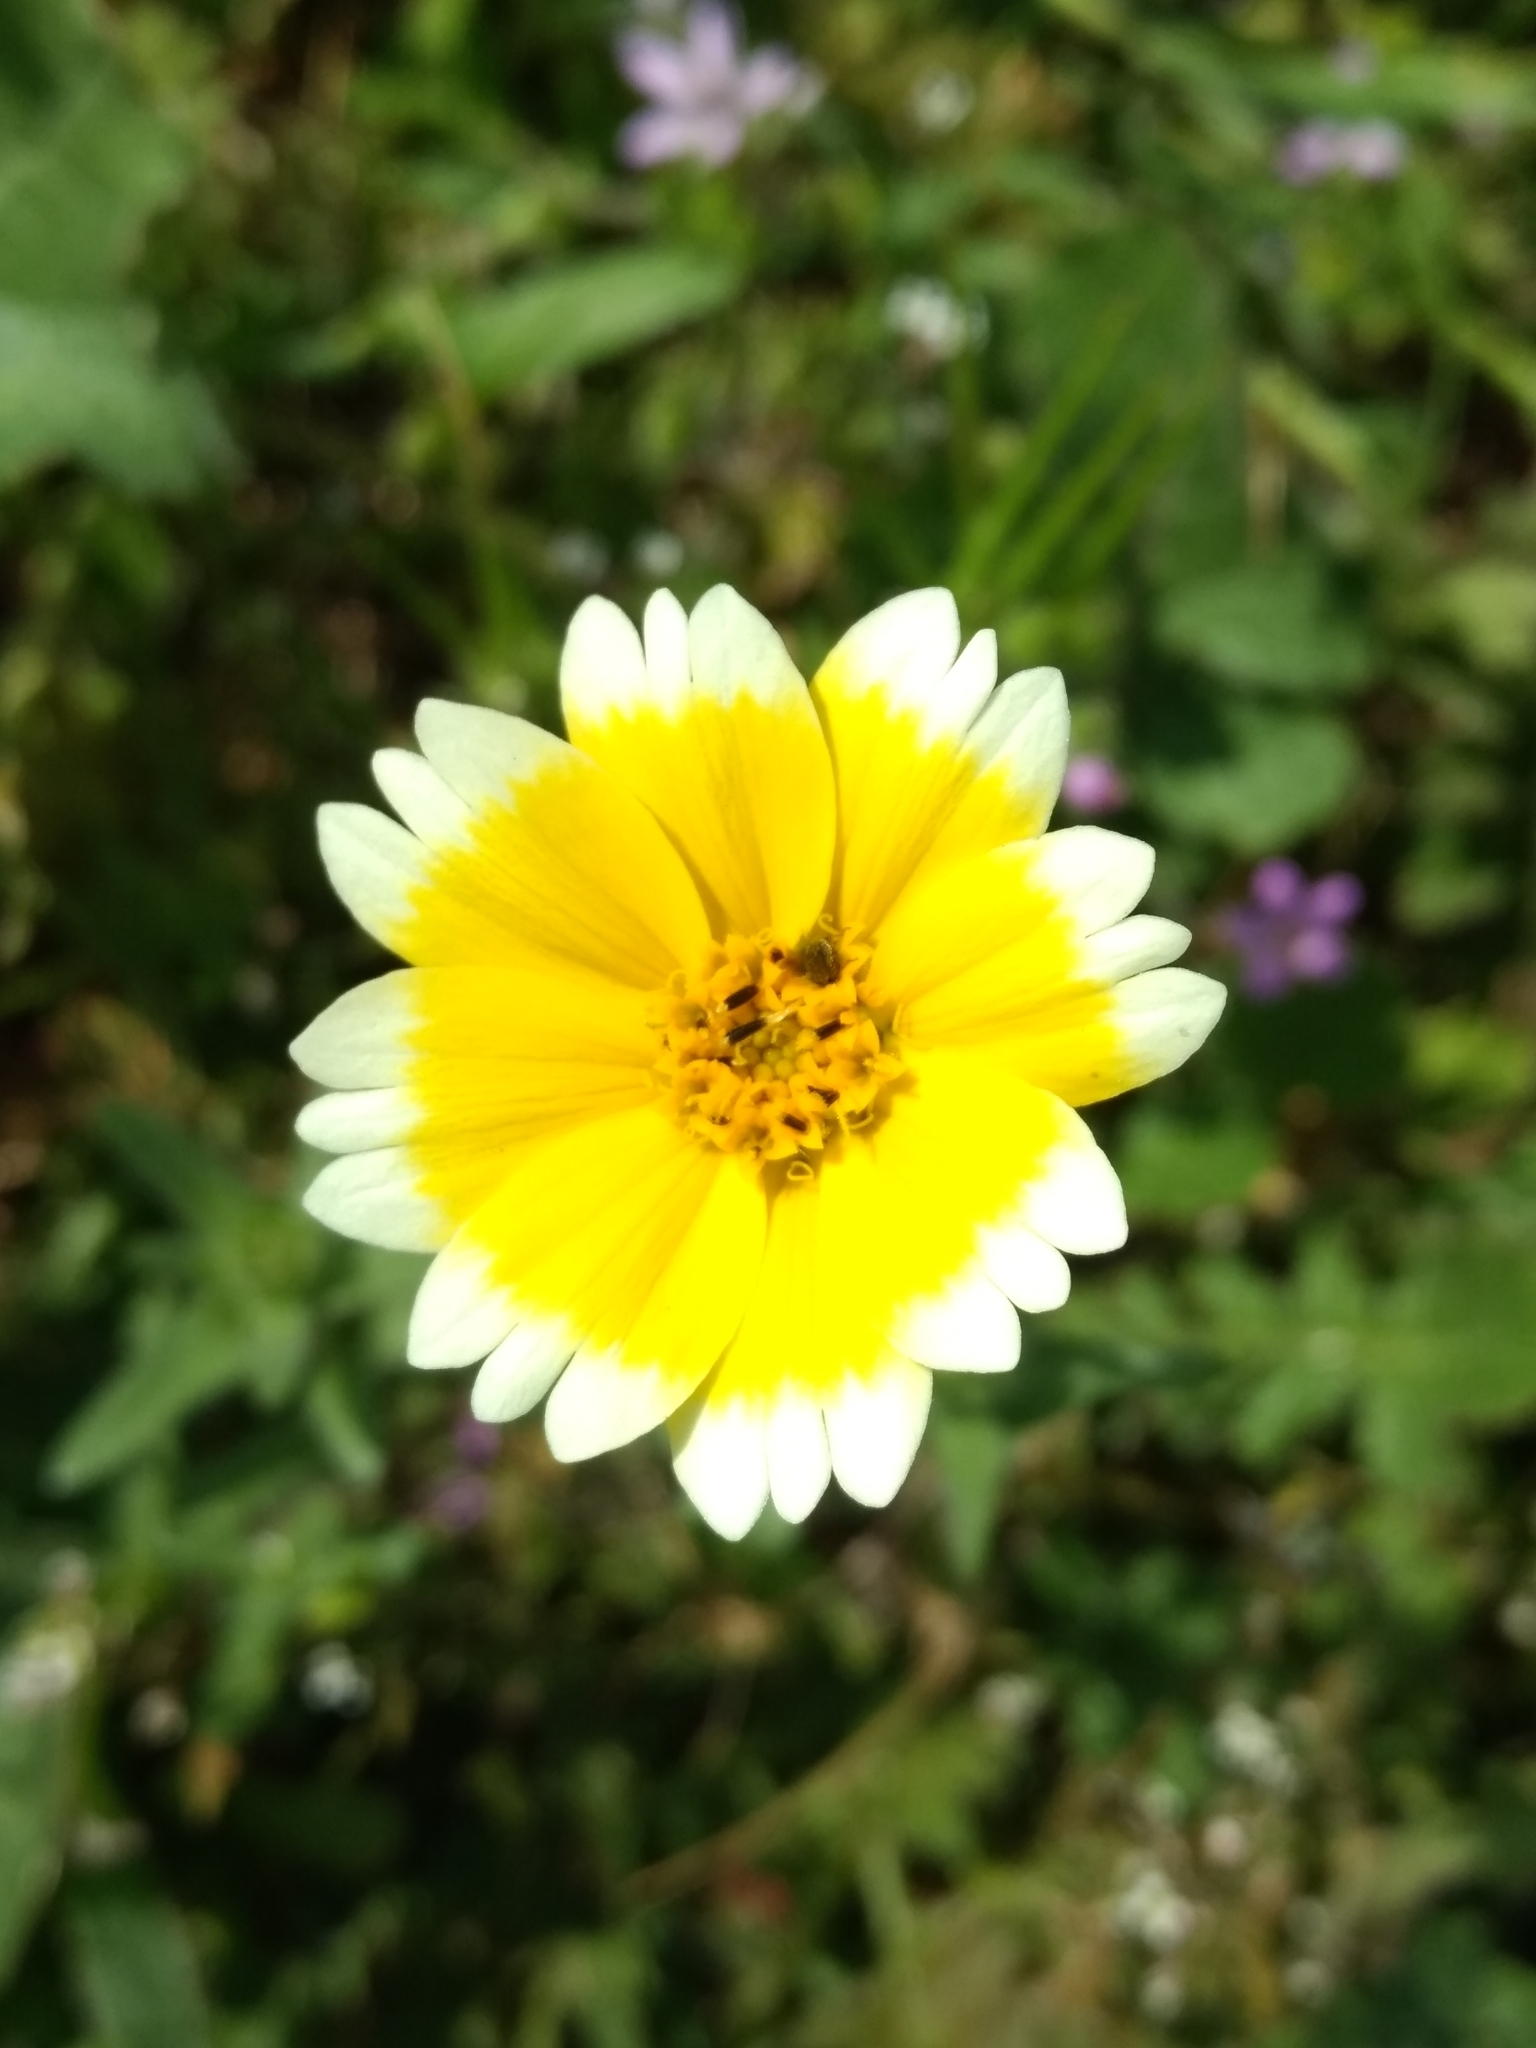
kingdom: Plantae
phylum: Tracheophyta
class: Magnoliopsida
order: Asterales
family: Asteraceae
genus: Layia
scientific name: Layia platyglossa
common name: Tidy-tips
